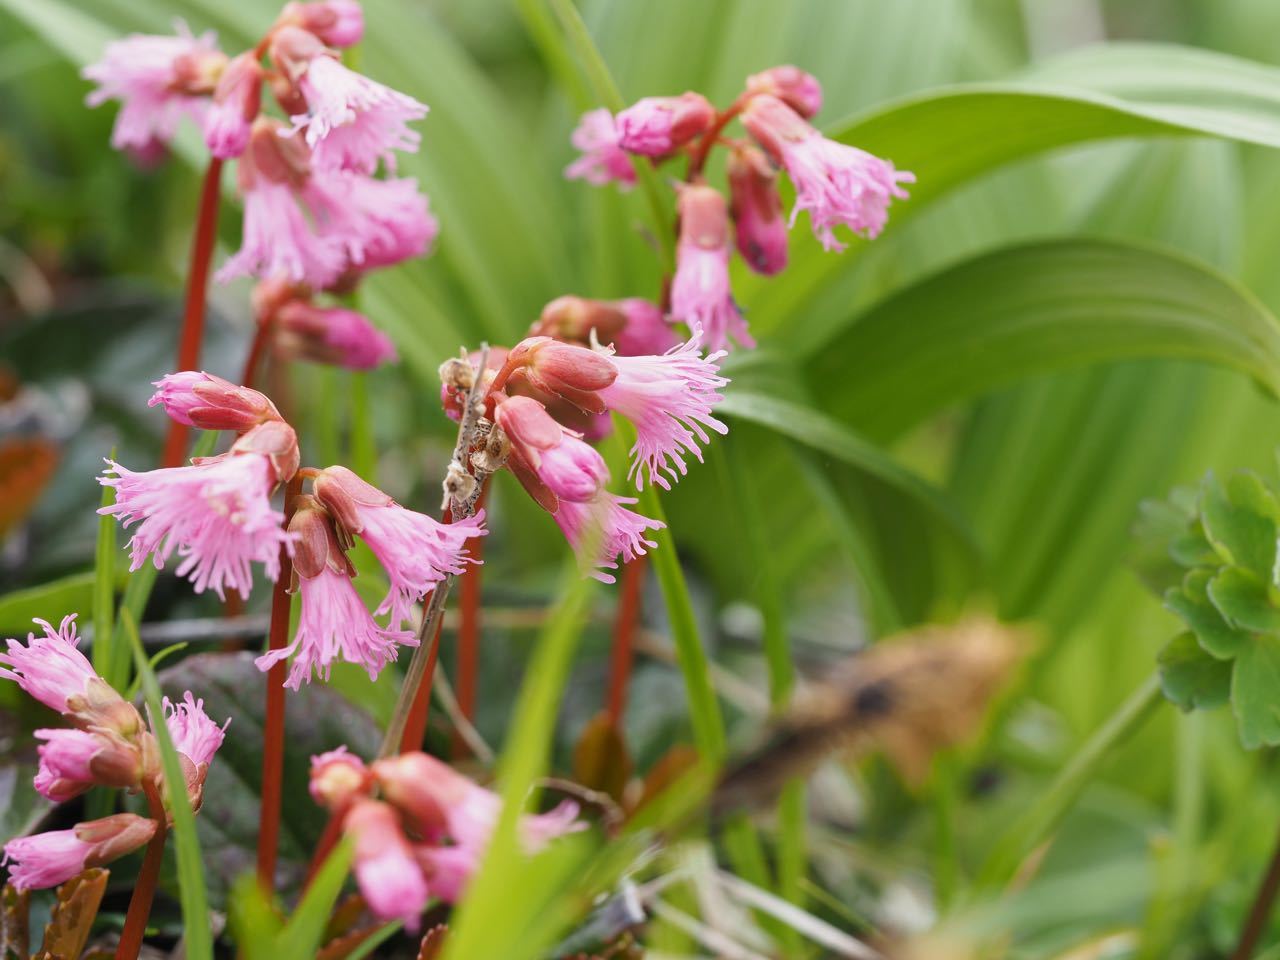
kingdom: Plantae
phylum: Tracheophyta
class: Magnoliopsida
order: Ericales
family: Diapensiaceae
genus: Schizocodon
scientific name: Schizocodon soldanelloides
